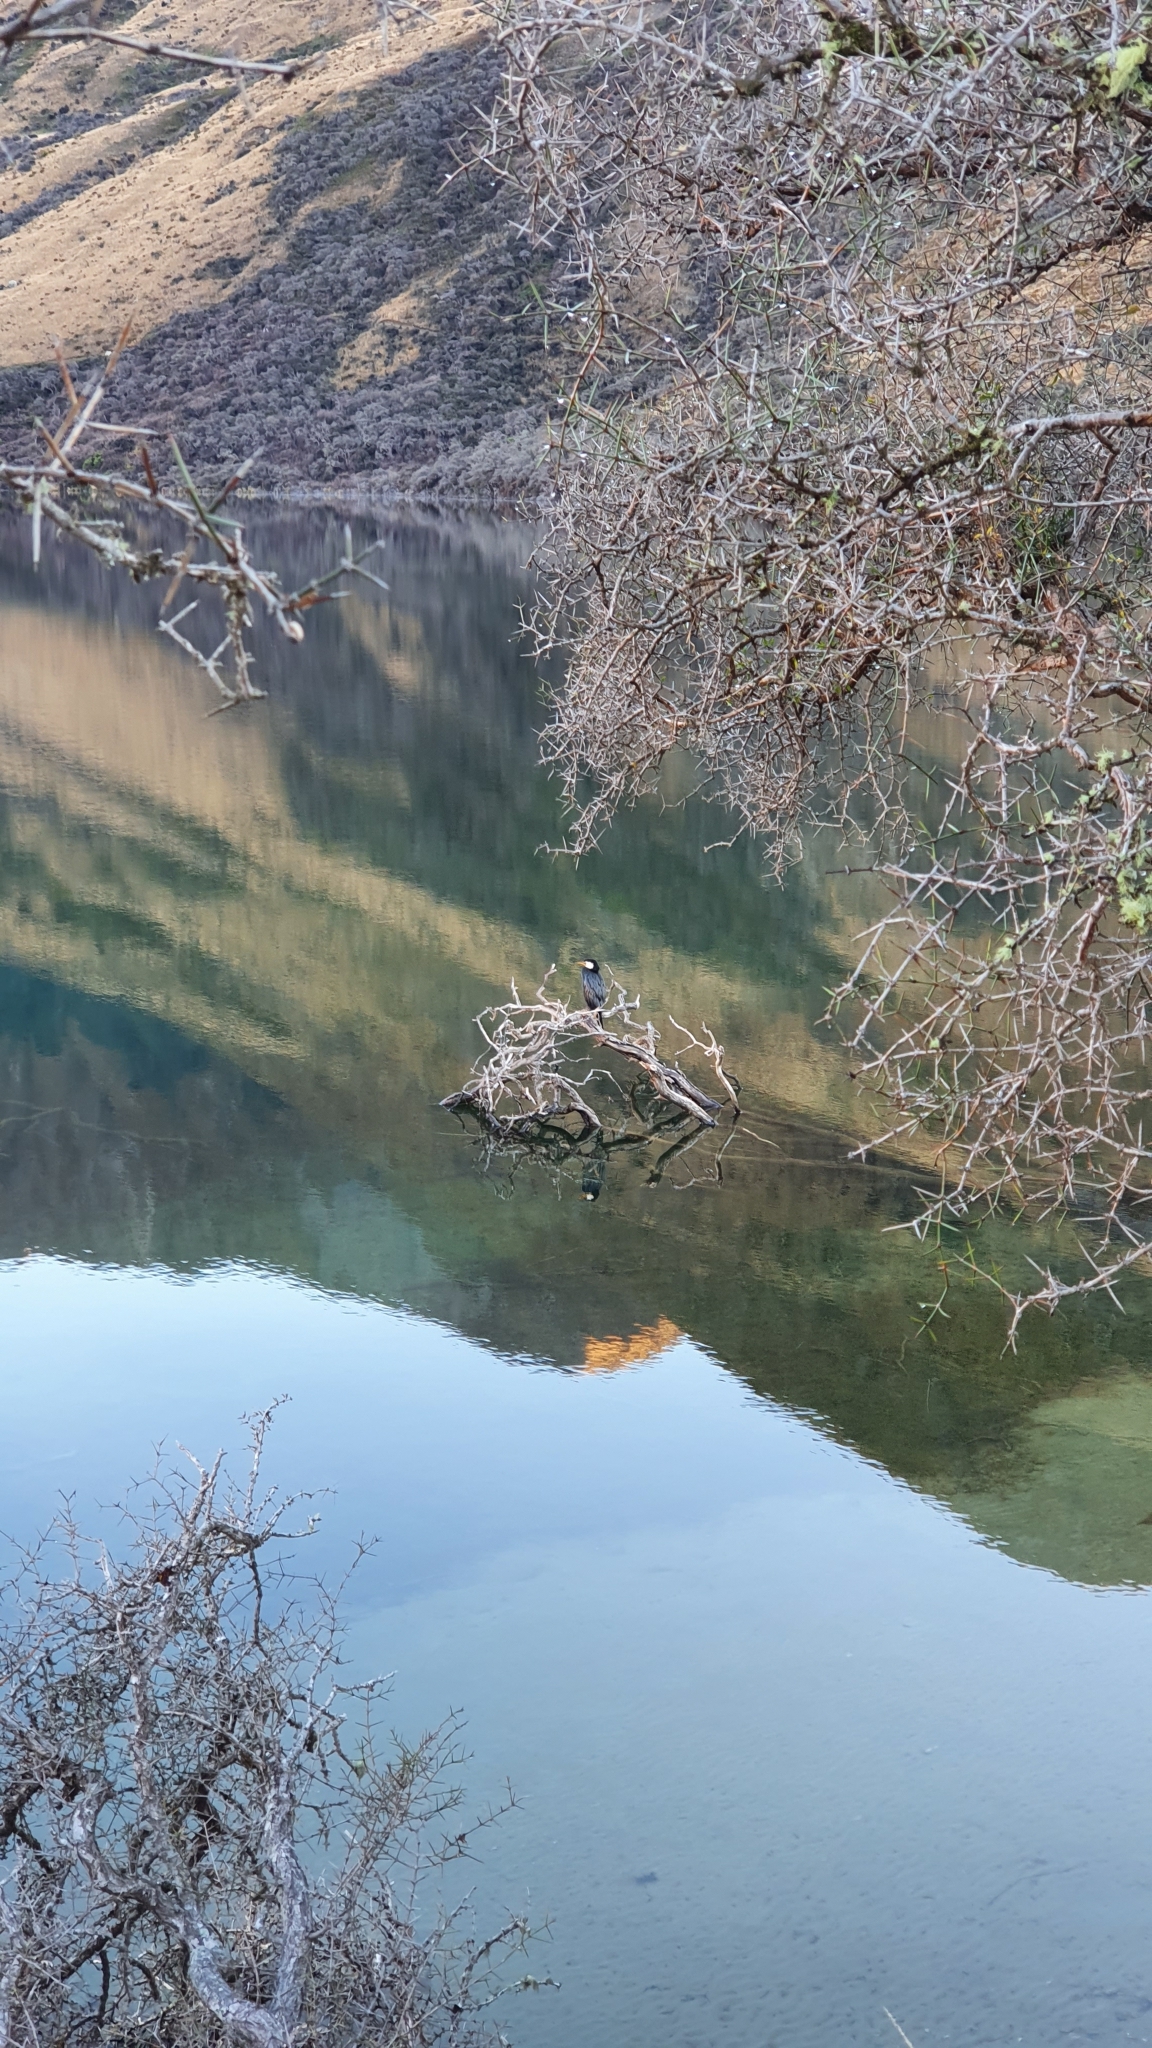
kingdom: Animalia
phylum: Chordata
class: Aves
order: Suliformes
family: Phalacrocoracidae
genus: Microcarbo
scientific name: Microcarbo melanoleucos
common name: Little pied cormorant
